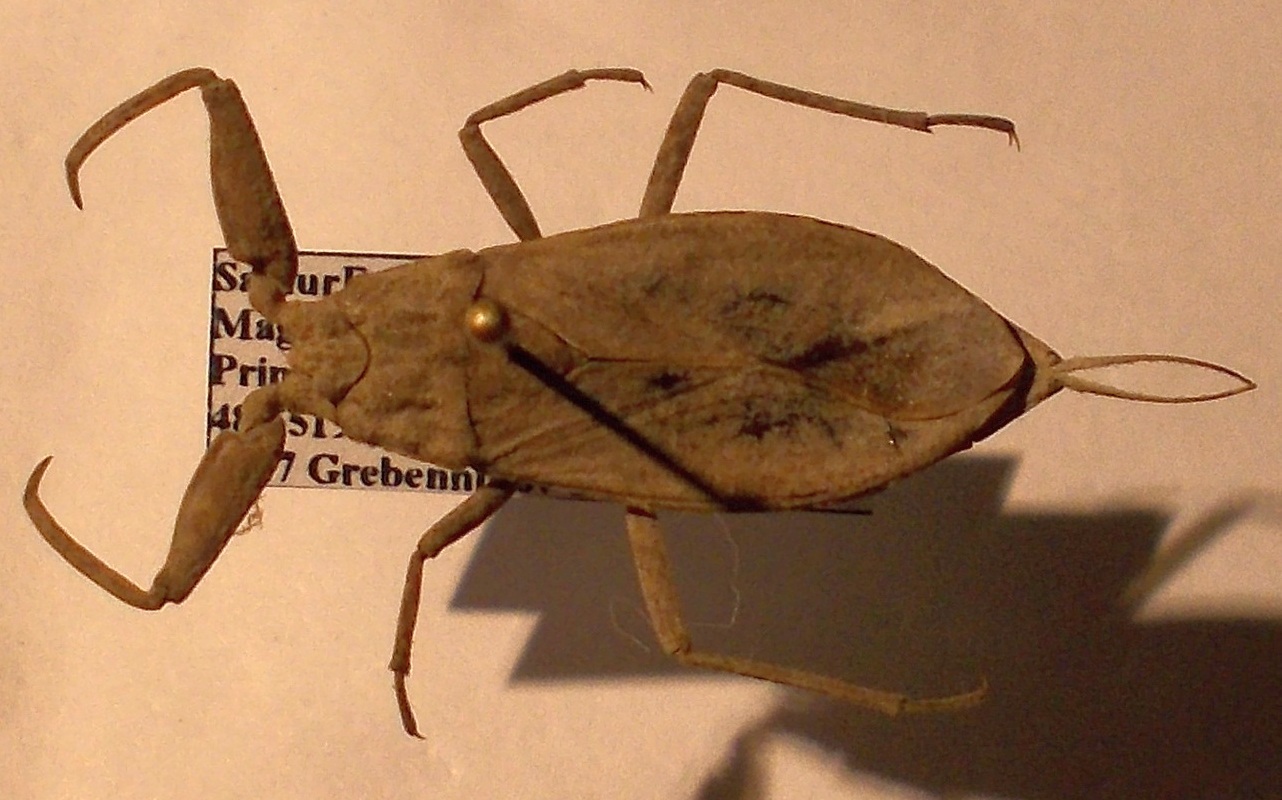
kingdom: Animalia
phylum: Arthropoda
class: Insecta
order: Hemiptera
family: Nepidae
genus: Nepa
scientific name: Nepa cinerea
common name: Water scorpion
